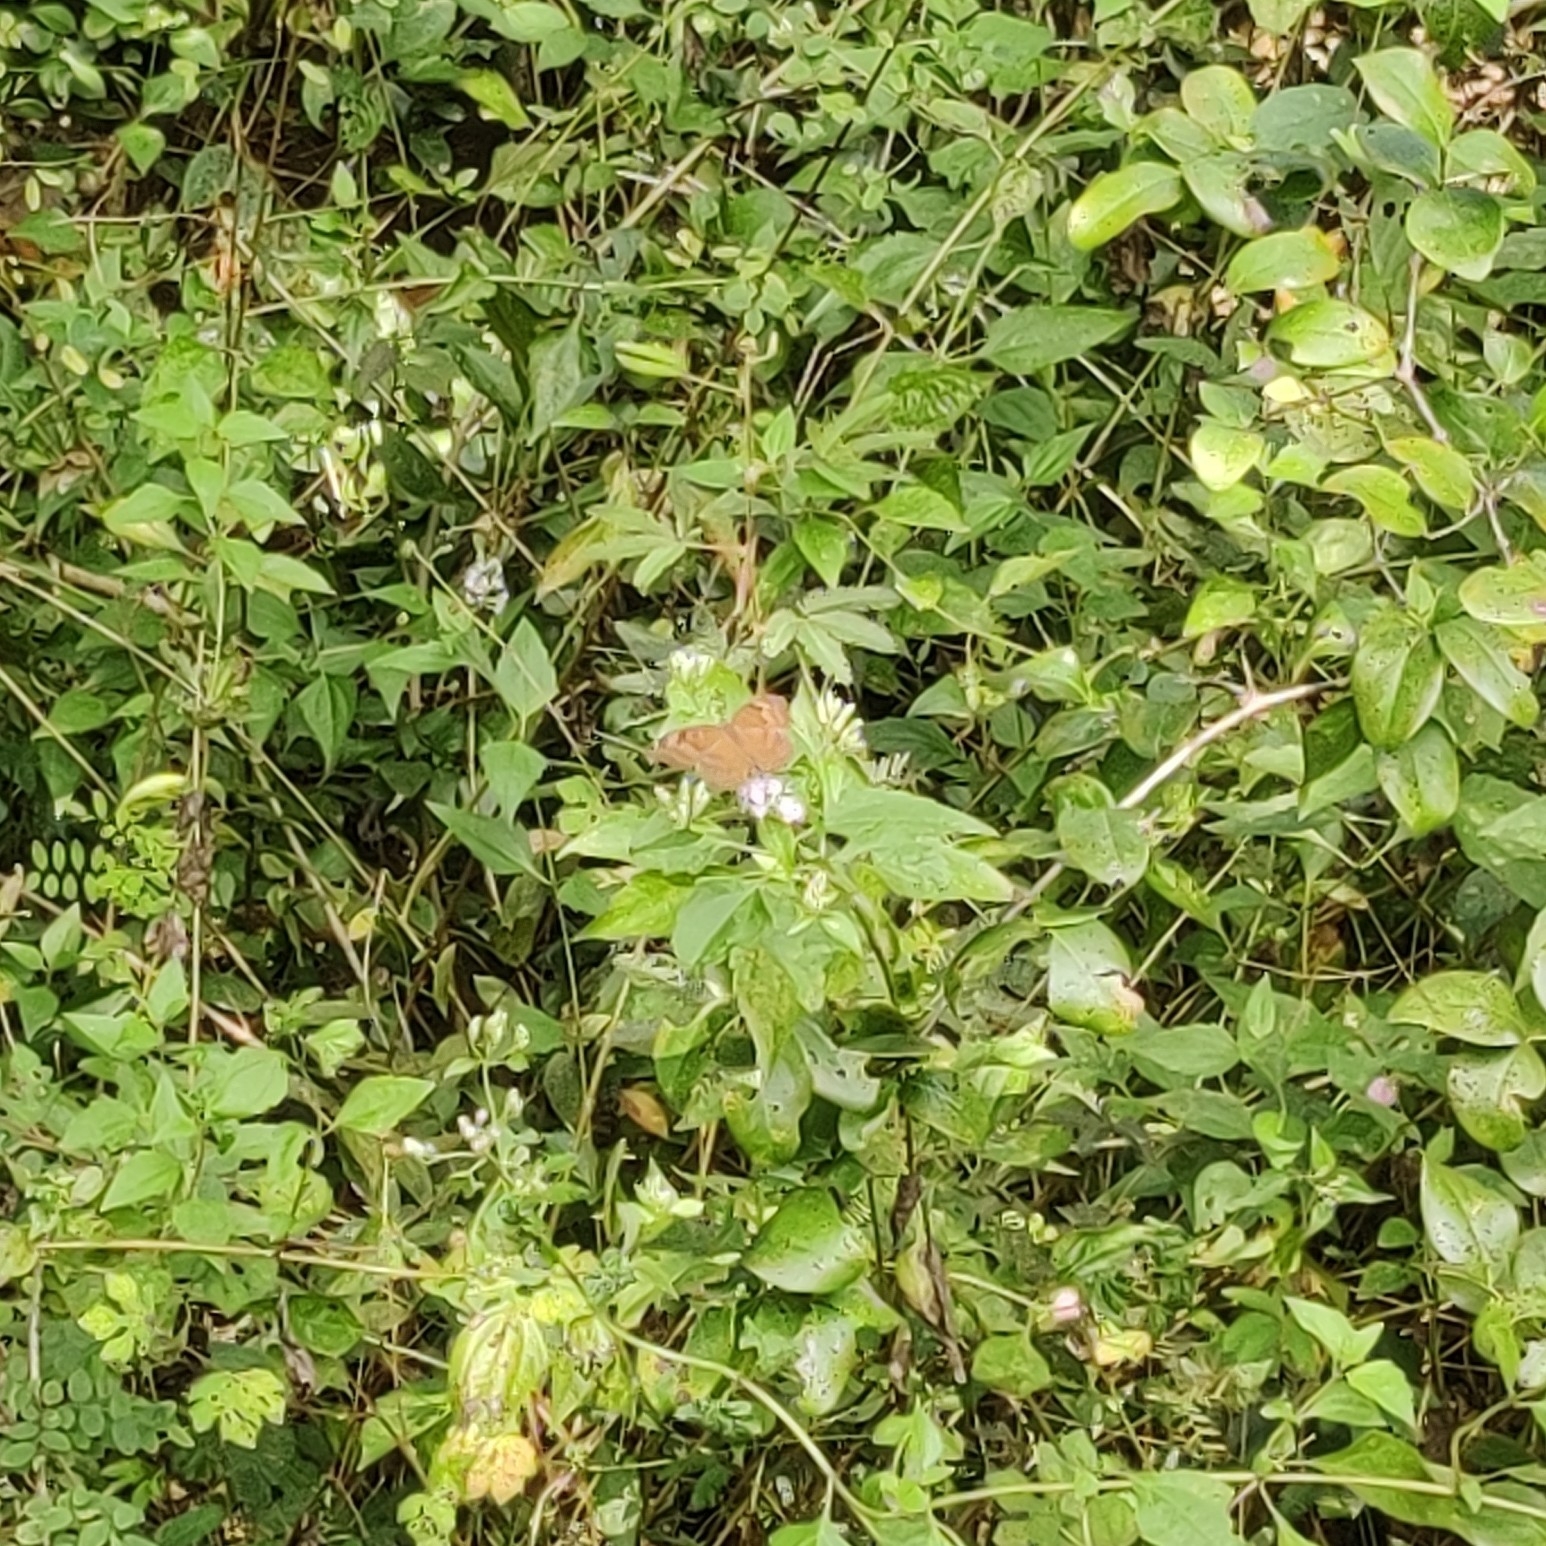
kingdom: Animalia
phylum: Arthropoda
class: Insecta
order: Lepidoptera
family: Nymphalidae
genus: Junonia
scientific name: Junonia iphita
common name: Chocolate pansy
